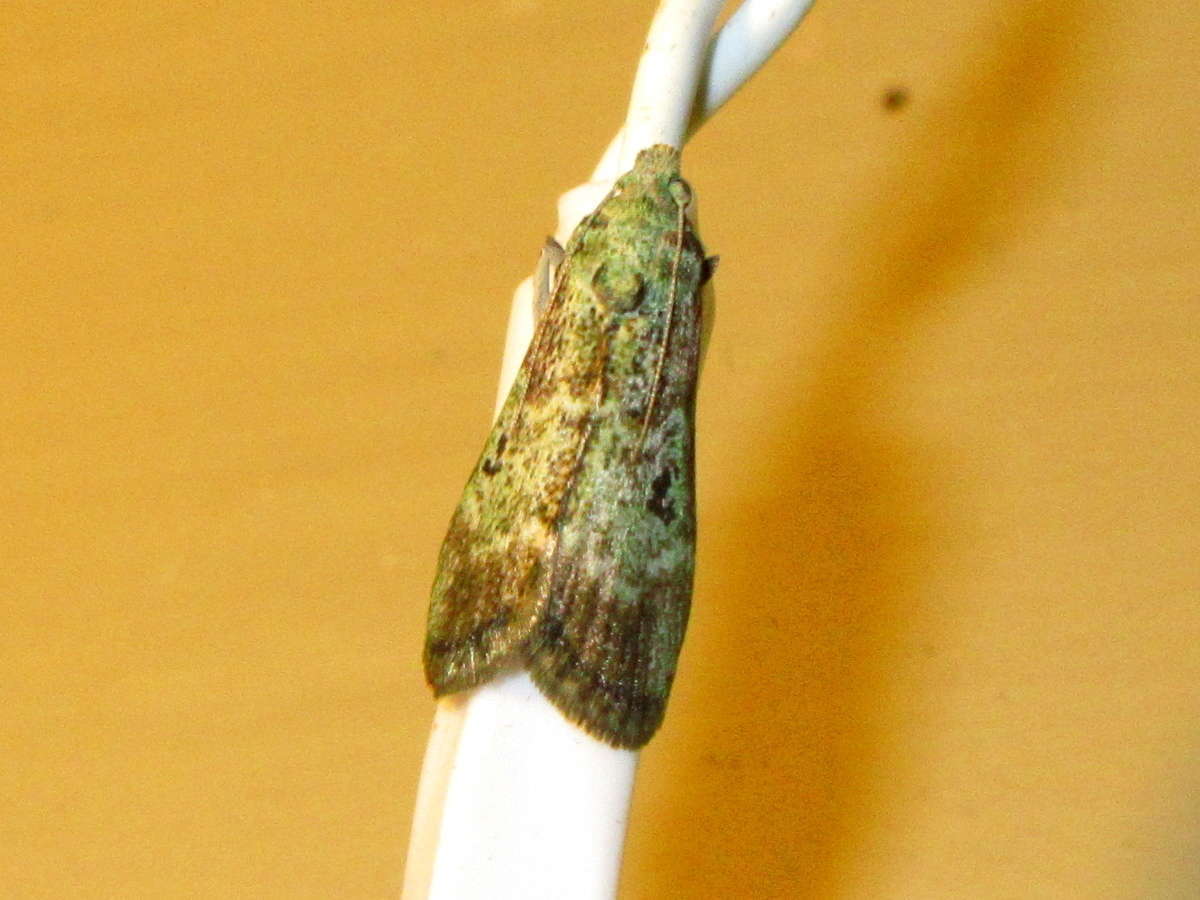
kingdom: Animalia
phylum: Arthropoda
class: Insecta
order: Lepidoptera
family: Pyralidae
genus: Heteromicta
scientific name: Heteromicta tripartitella
